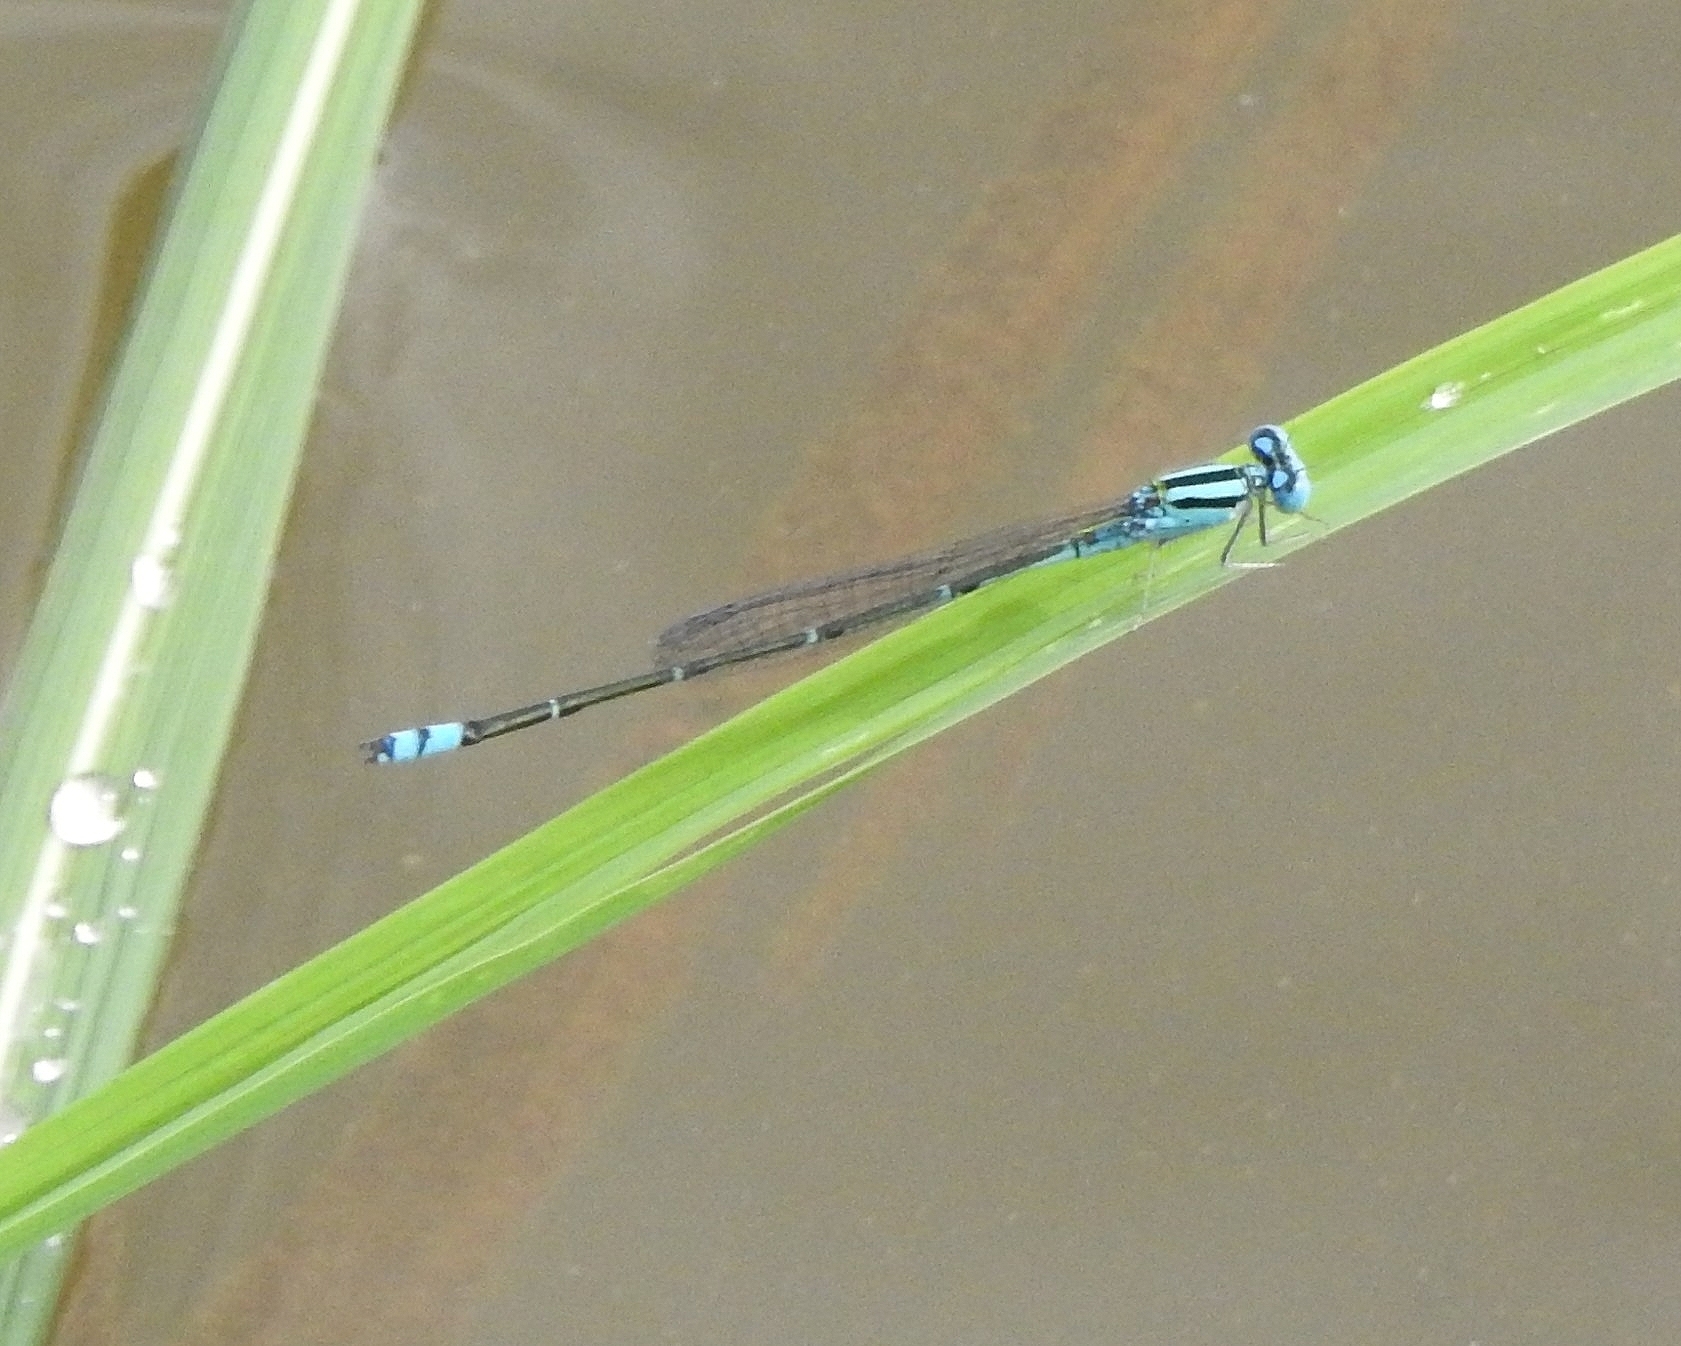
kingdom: Animalia
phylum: Arthropoda
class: Insecta
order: Odonata
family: Coenagrionidae
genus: Pseudagrion
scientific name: Pseudagrion microcephalum
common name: Blue riverdamsel
